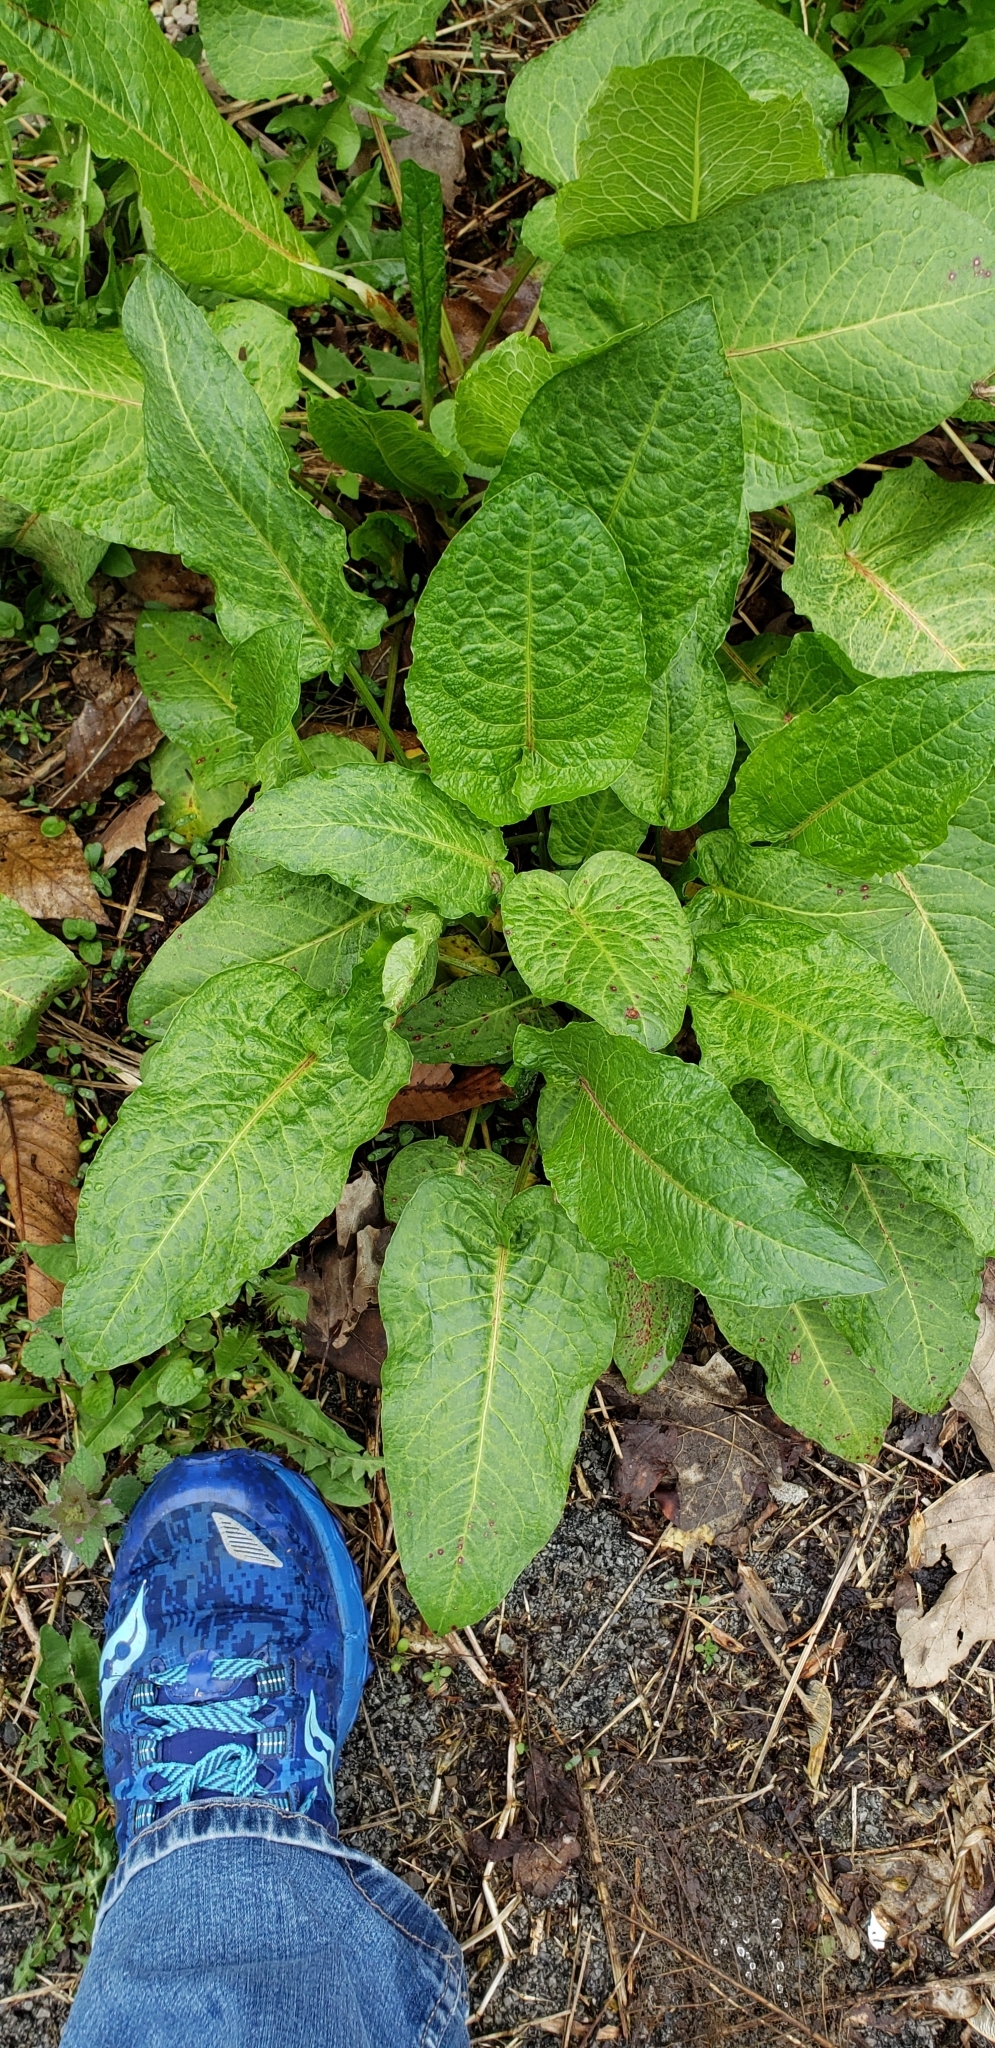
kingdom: Plantae
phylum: Tracheophyta
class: Magnoliopsida
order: Caryophyllales
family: Polygonaceae
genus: Rumex
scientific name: Rumex obtusifolius
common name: Bitter dock
